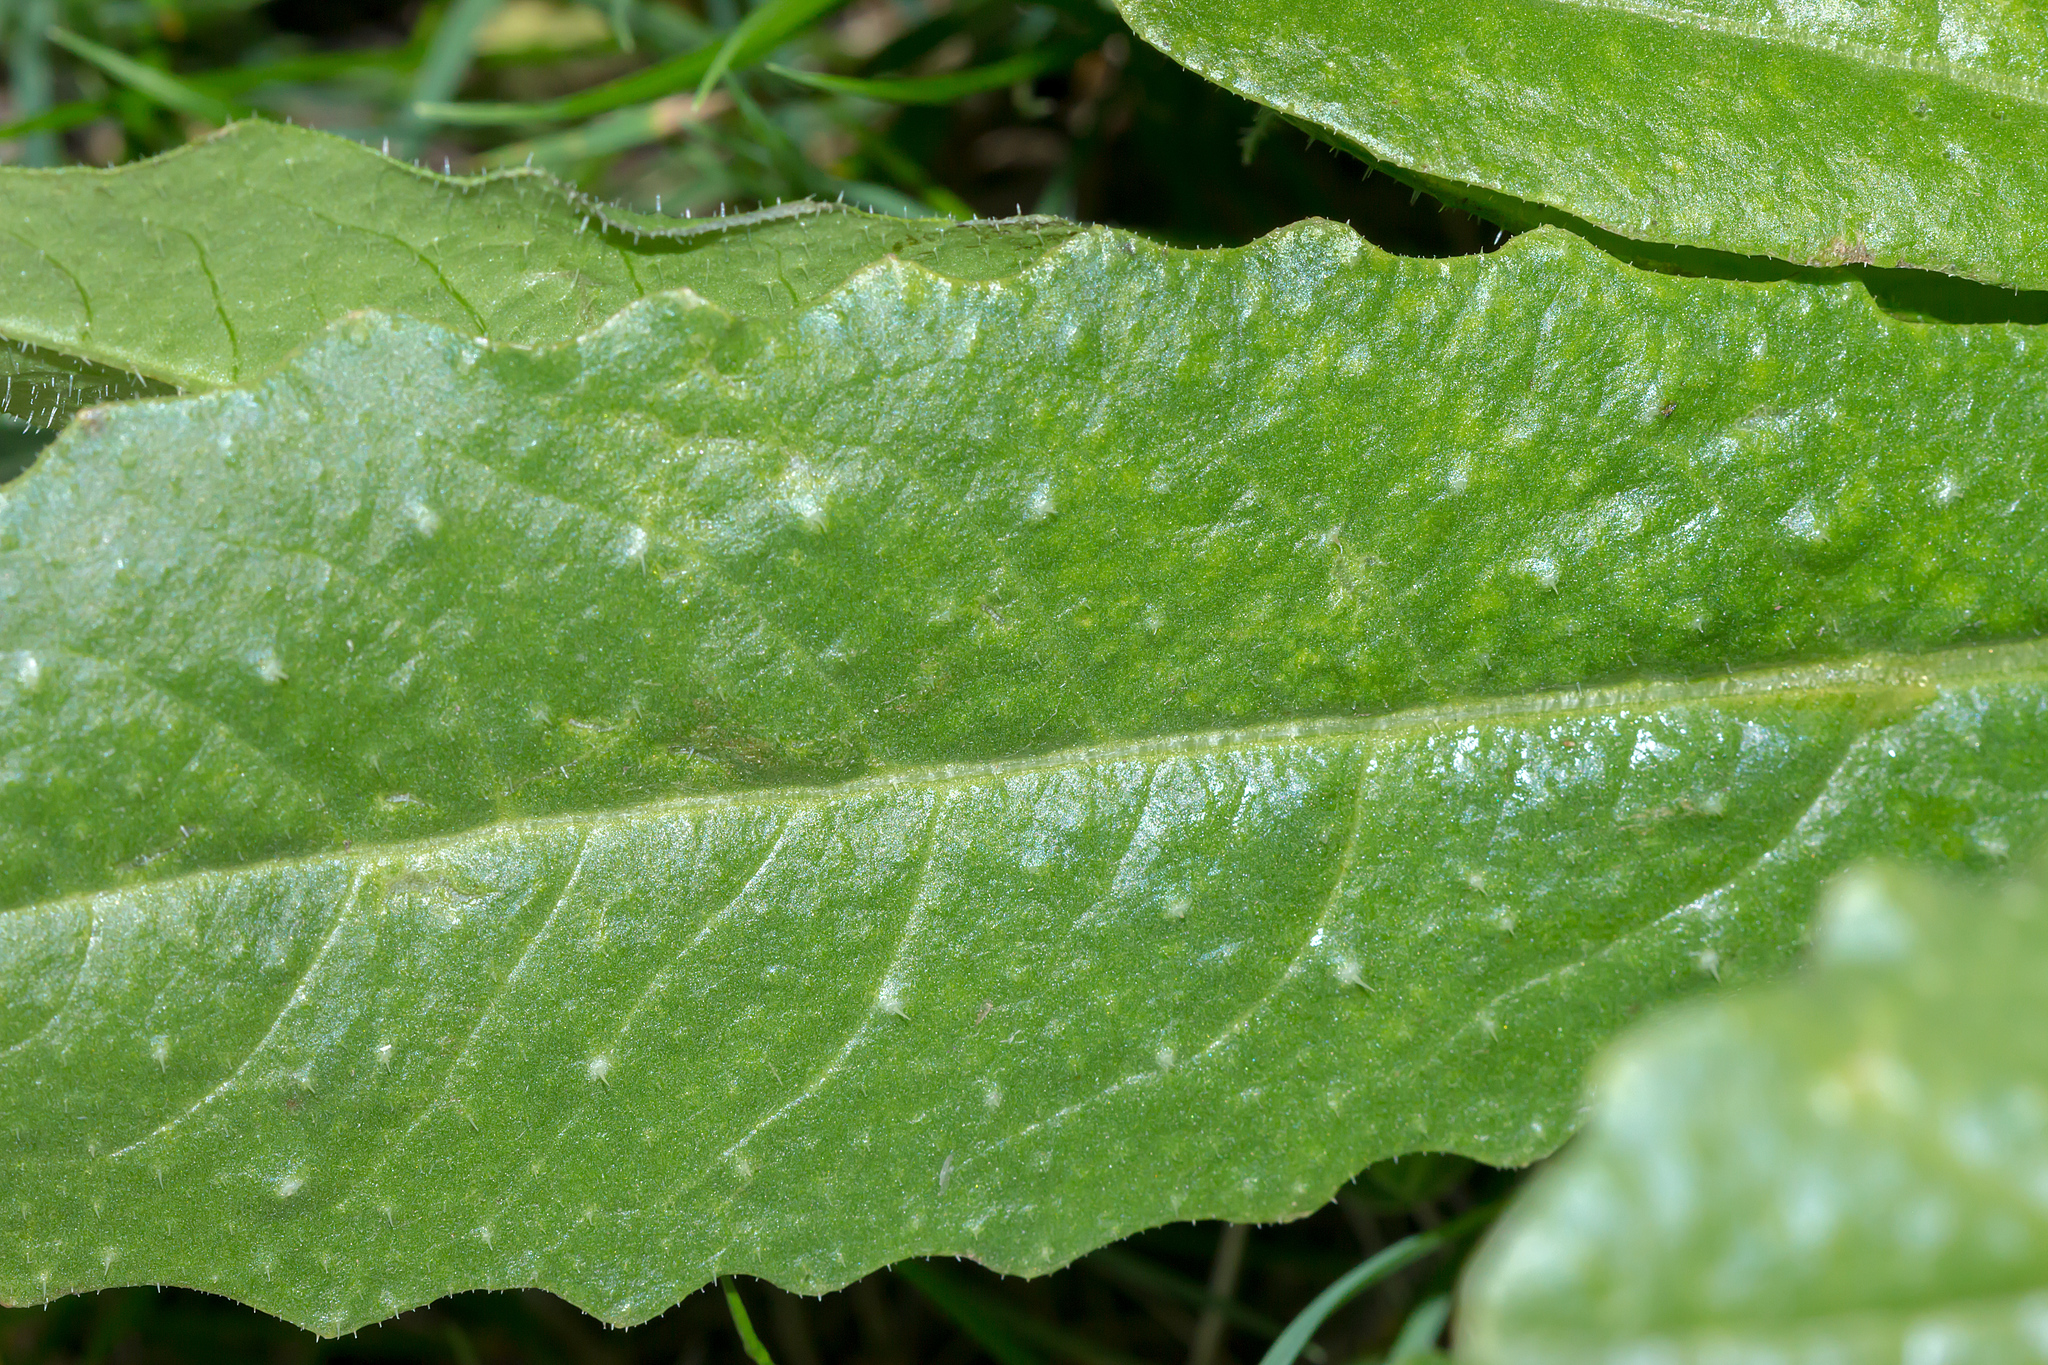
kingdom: Plantae
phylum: Tracheophyta
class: Magnoliopsida
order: Asterales
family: Asteraceae
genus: Helminthotheca
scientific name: Helminthotheca echioides
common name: Ox-tongue
